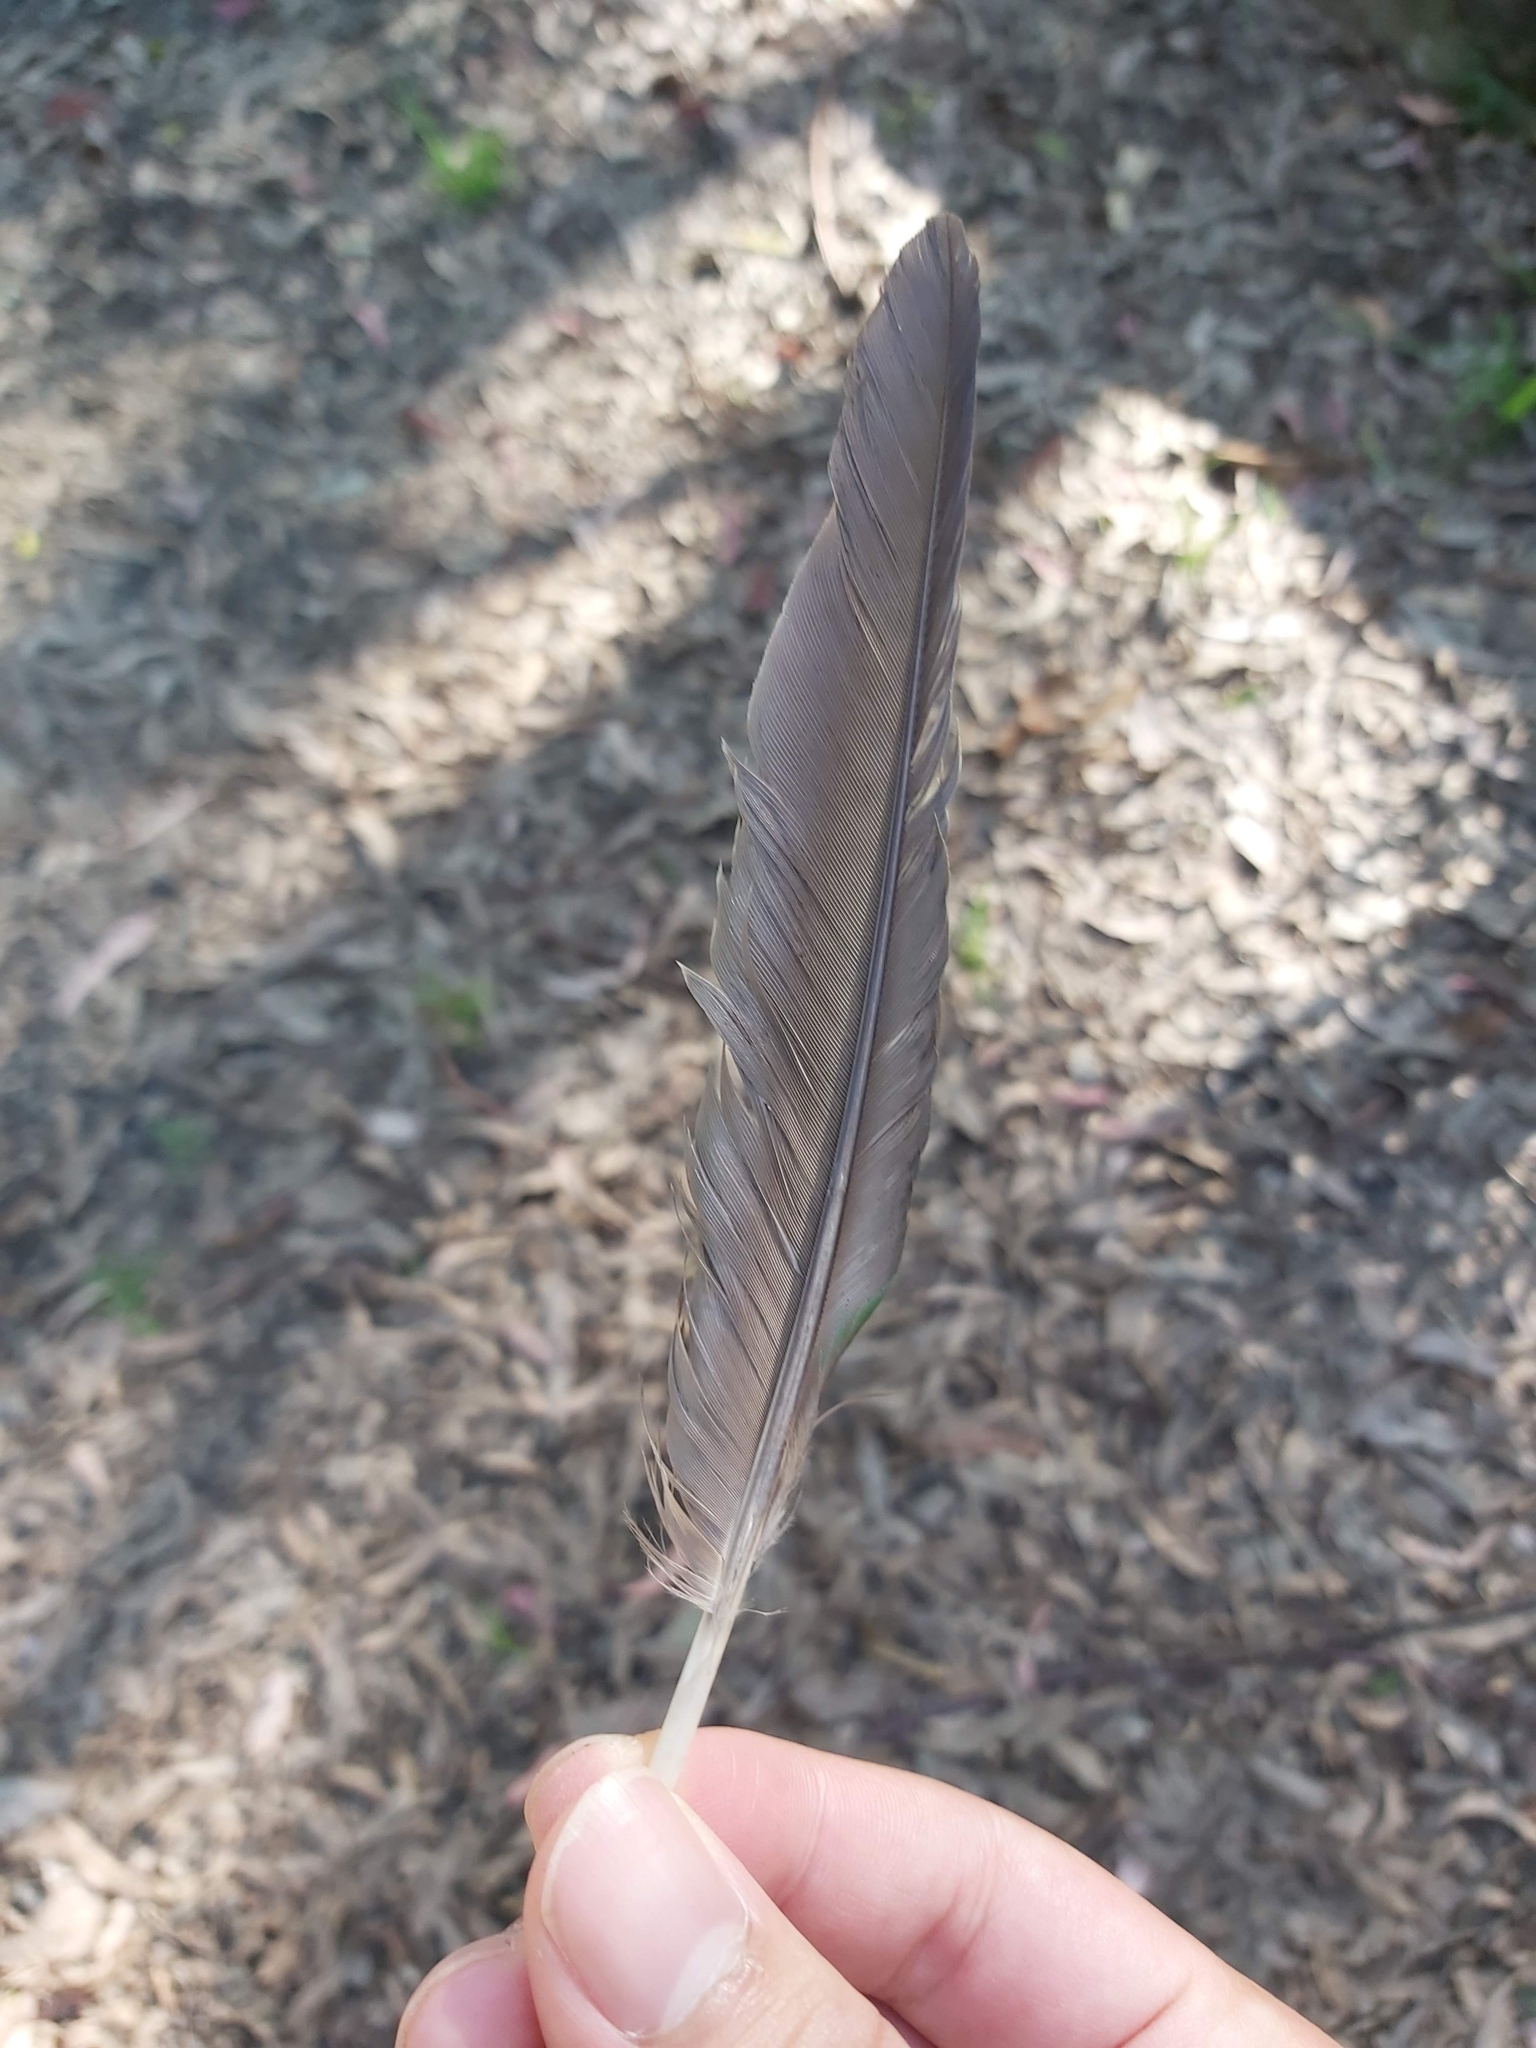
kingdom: Animalia
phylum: Chordata
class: Aves
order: Psittaciformes
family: Psittacidae
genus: Alisterus
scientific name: Alisterus scapularis
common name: Australian king parrot
